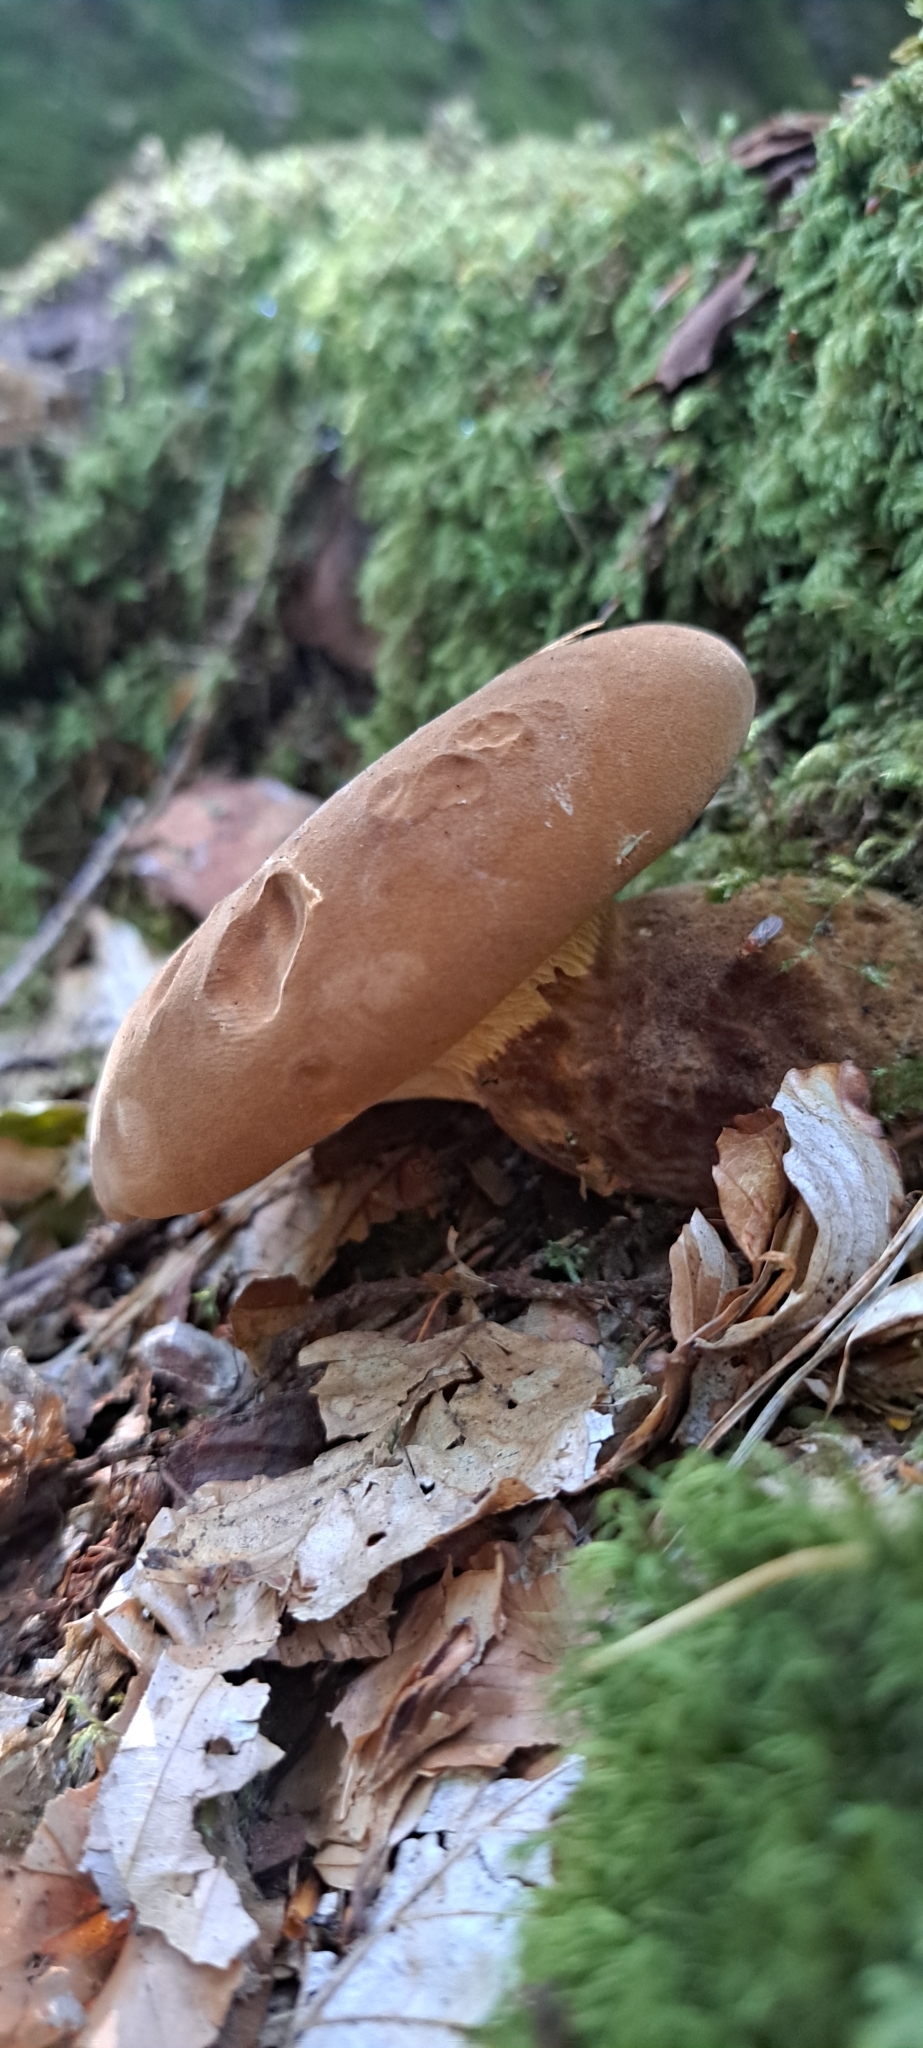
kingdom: Fungi
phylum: Basidiomycota
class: Agaricomycetes
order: Boletales
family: Tapinellaceae
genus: Tapinella
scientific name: Tapinella atrotomentosa
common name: Velvet rollrim
